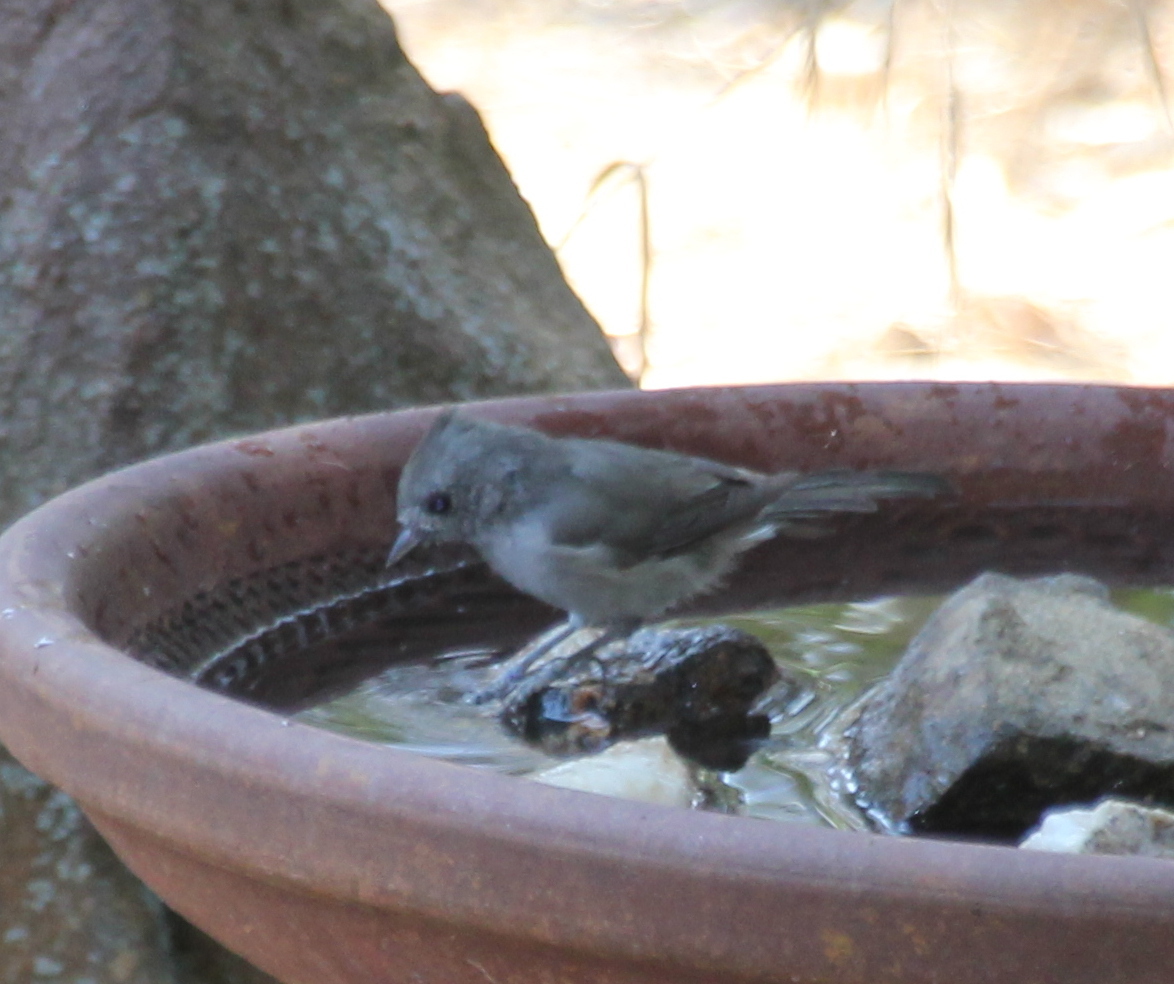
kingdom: Animalia
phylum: Chordata
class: Aves
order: Passeriformes
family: Paridae
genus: Baeolophus
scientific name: Baeolophus inornatus
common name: Oak titmouse
